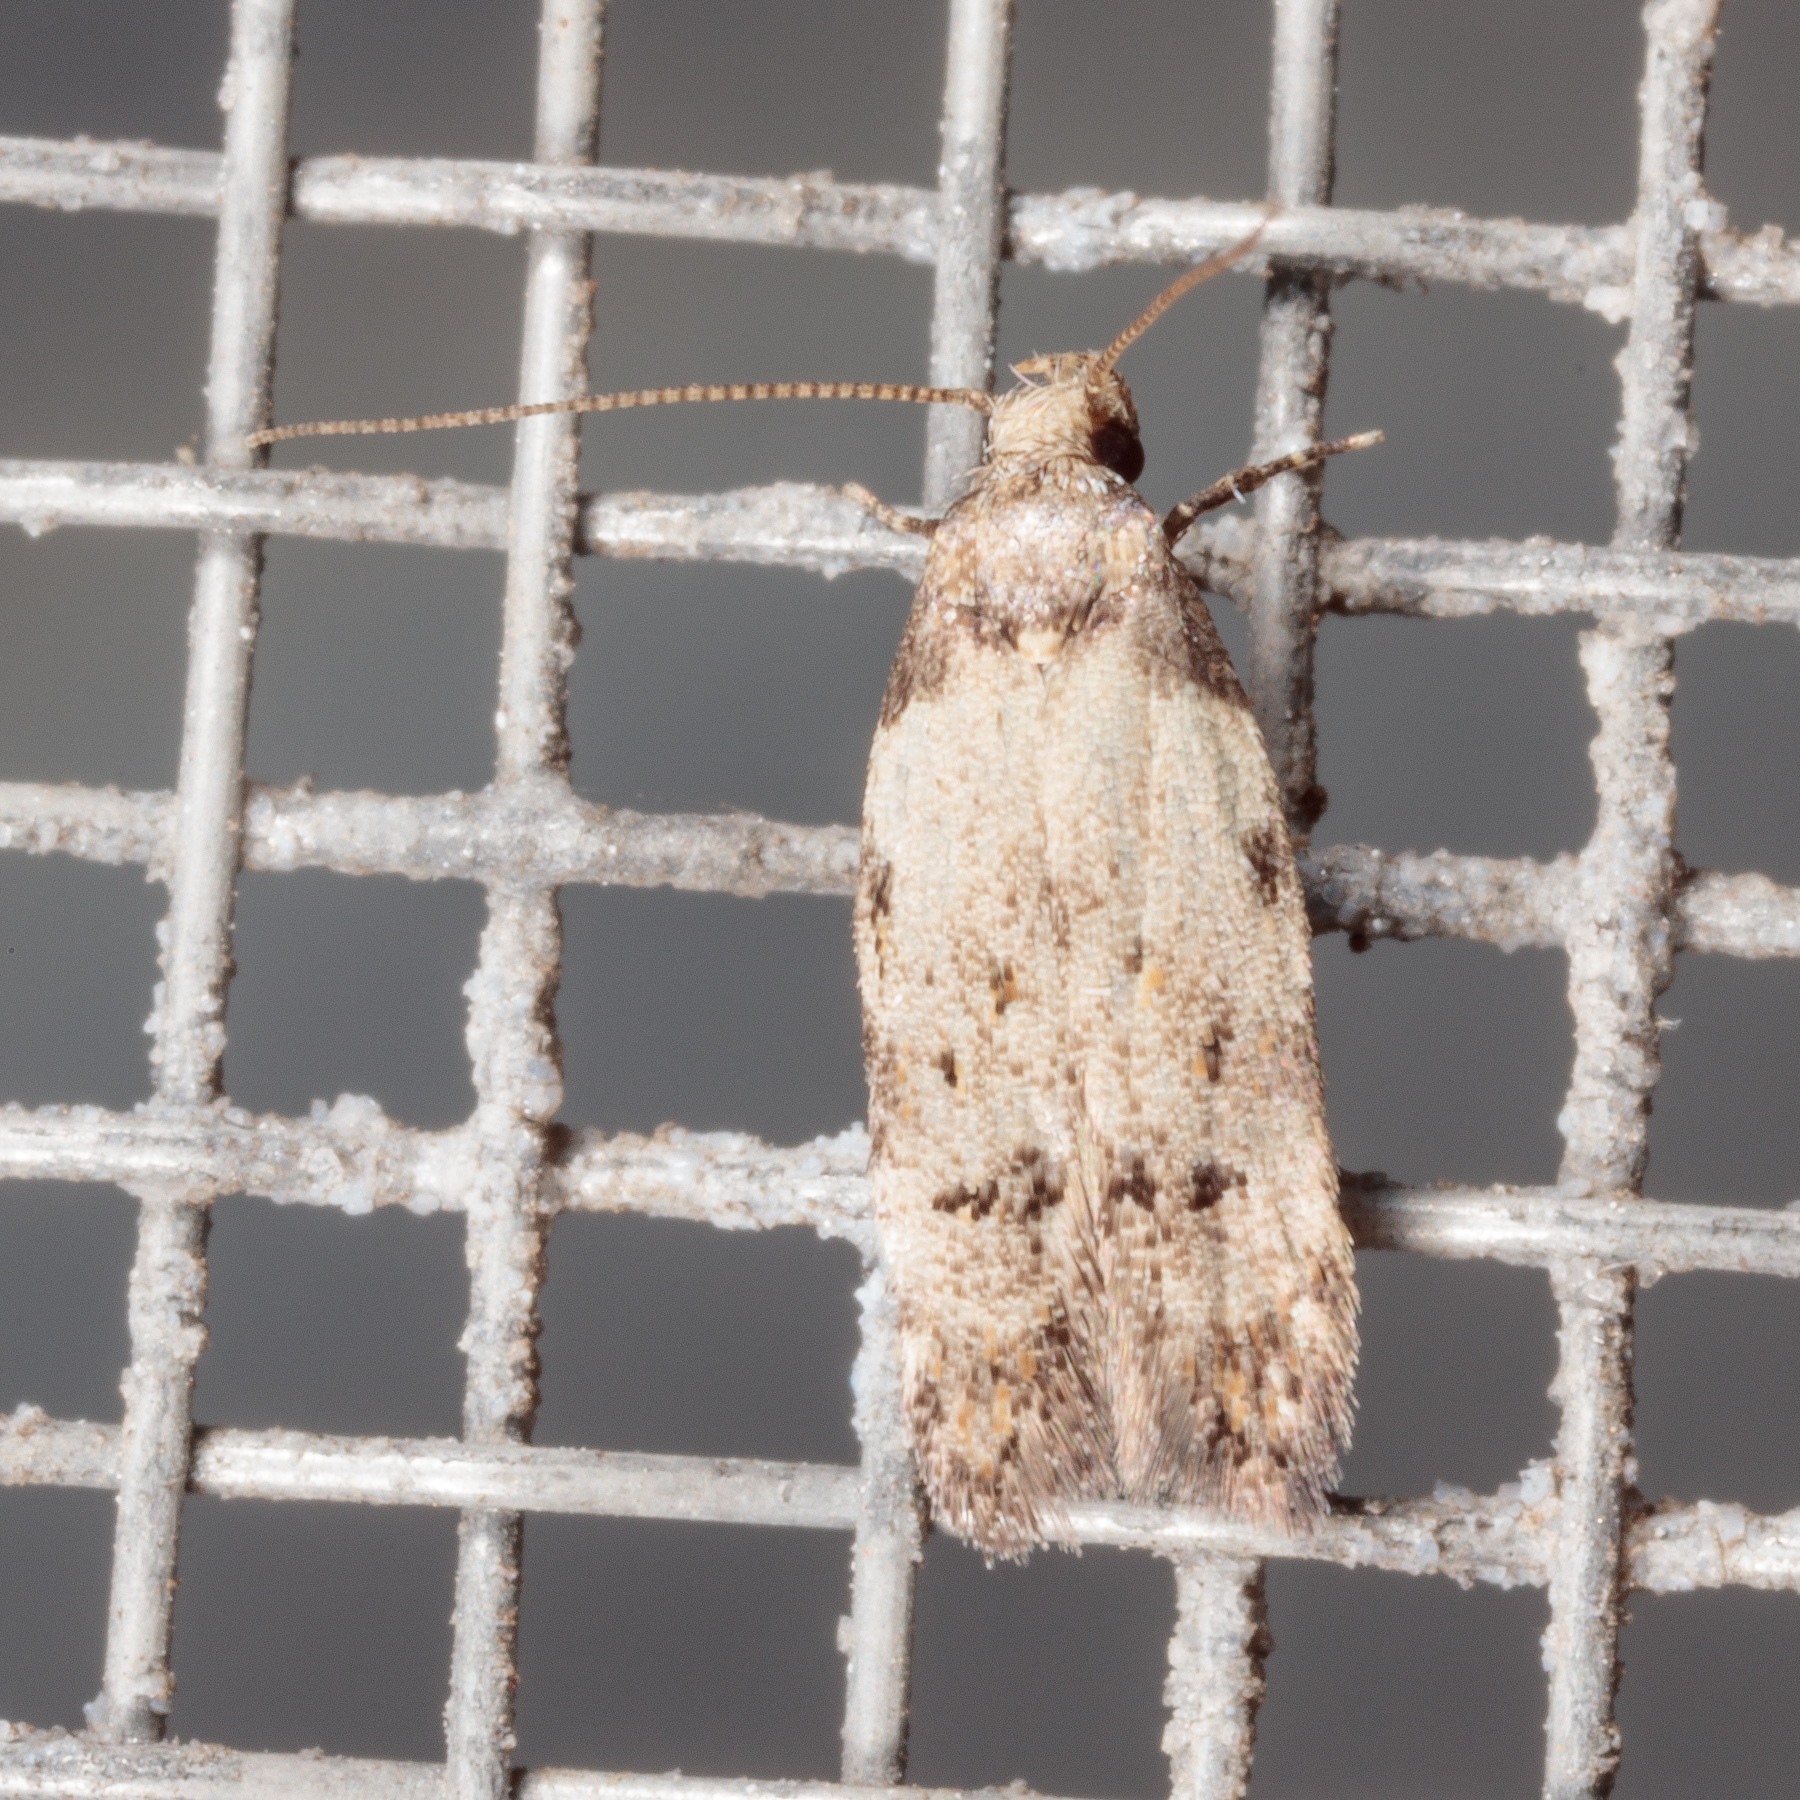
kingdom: Animalia
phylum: Arthropoda
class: Insecta
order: Lepidoptera
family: Autostichidae
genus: Taygete
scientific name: Taygete attributella
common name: Triangle-marked twirler moth
